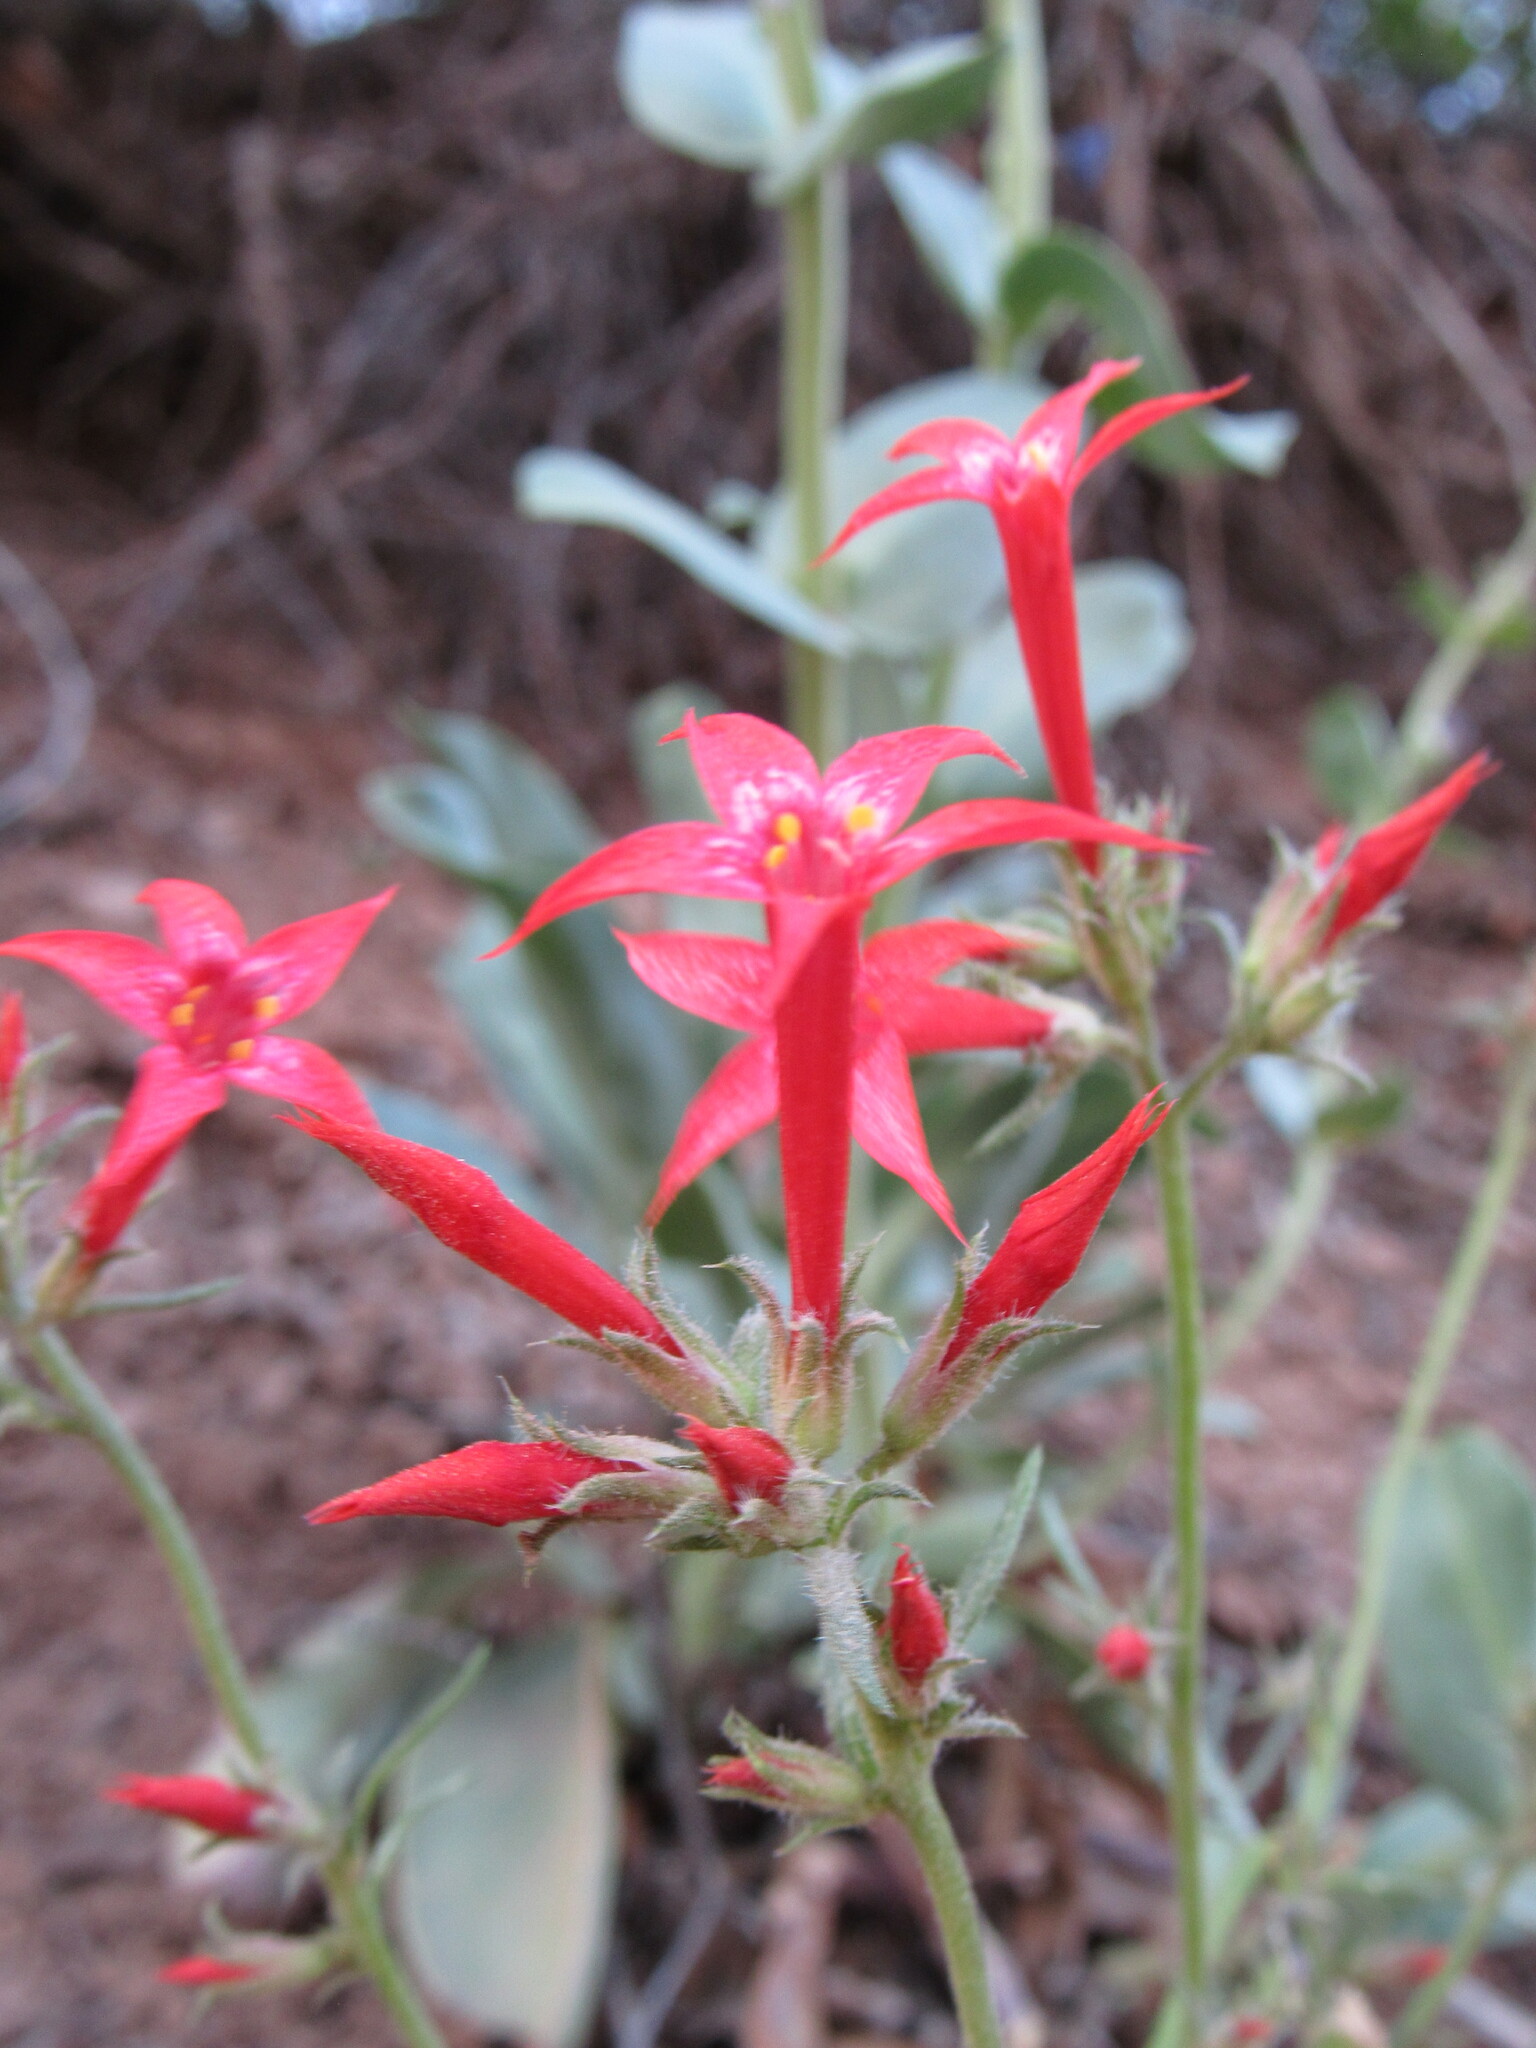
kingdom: Plantae
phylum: Tracheophyta
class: Magnoliopsida
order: Ericales
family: Polemoniaceae
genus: Ipomopsis
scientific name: Ipomopsis aggregata
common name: Scarlet gilia
